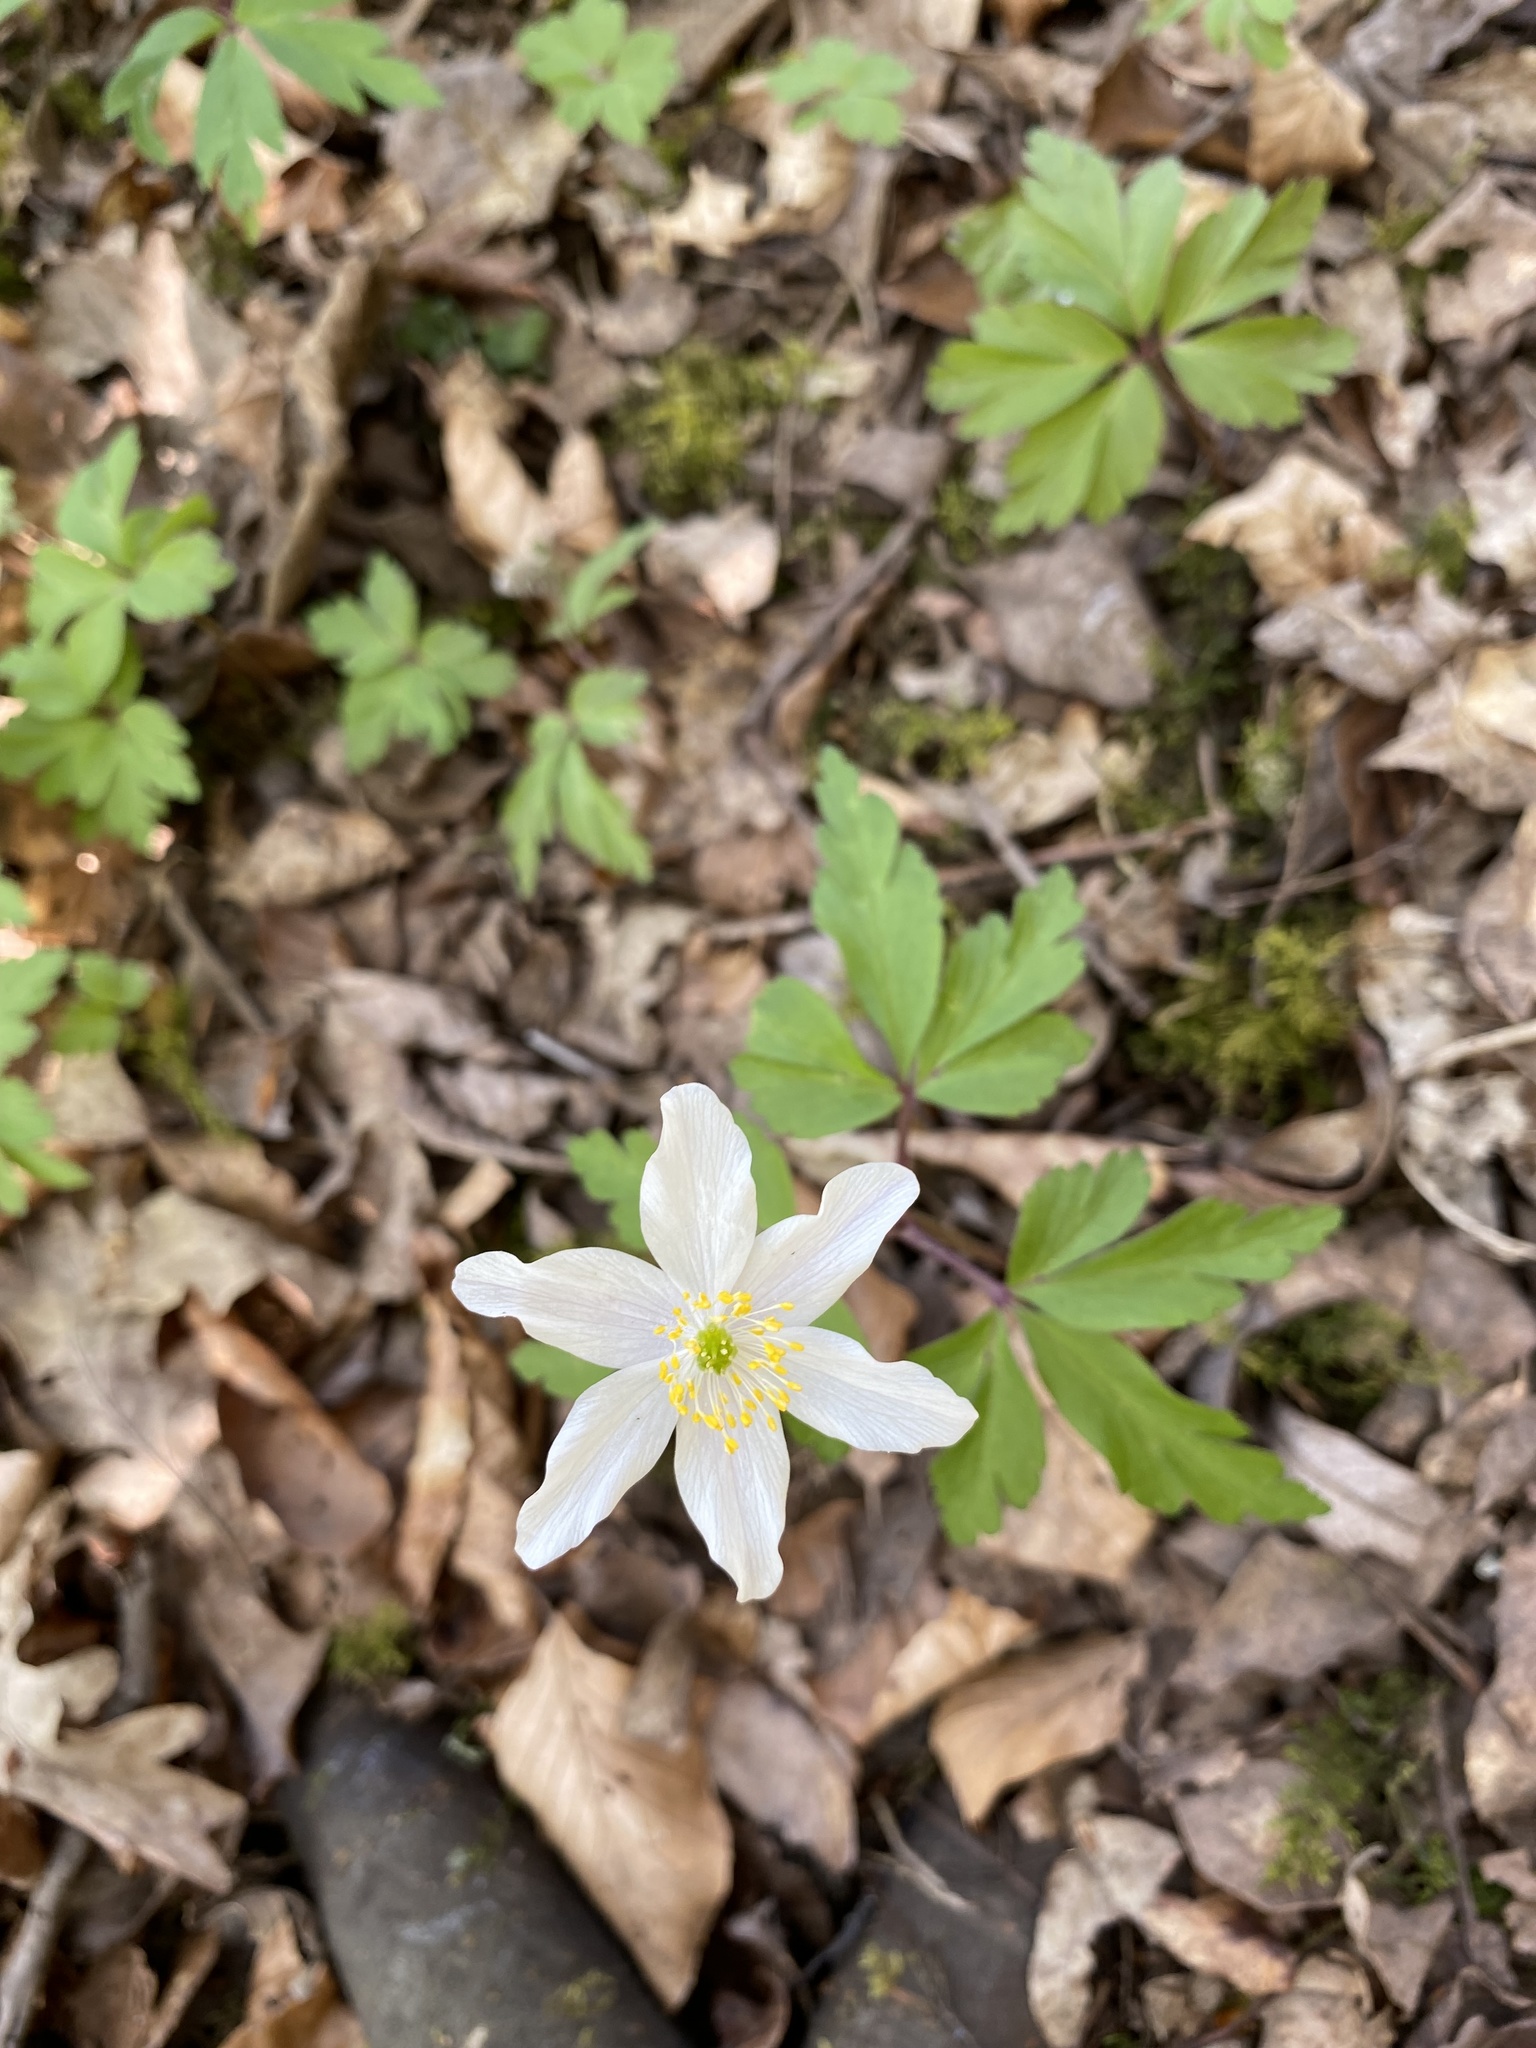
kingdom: Plantae
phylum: Tracheophyta
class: Magnoliopsida
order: Ranunculales
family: Ranunculaceae
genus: Anemone
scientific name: Anemone nemorosa
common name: Wood anemone
